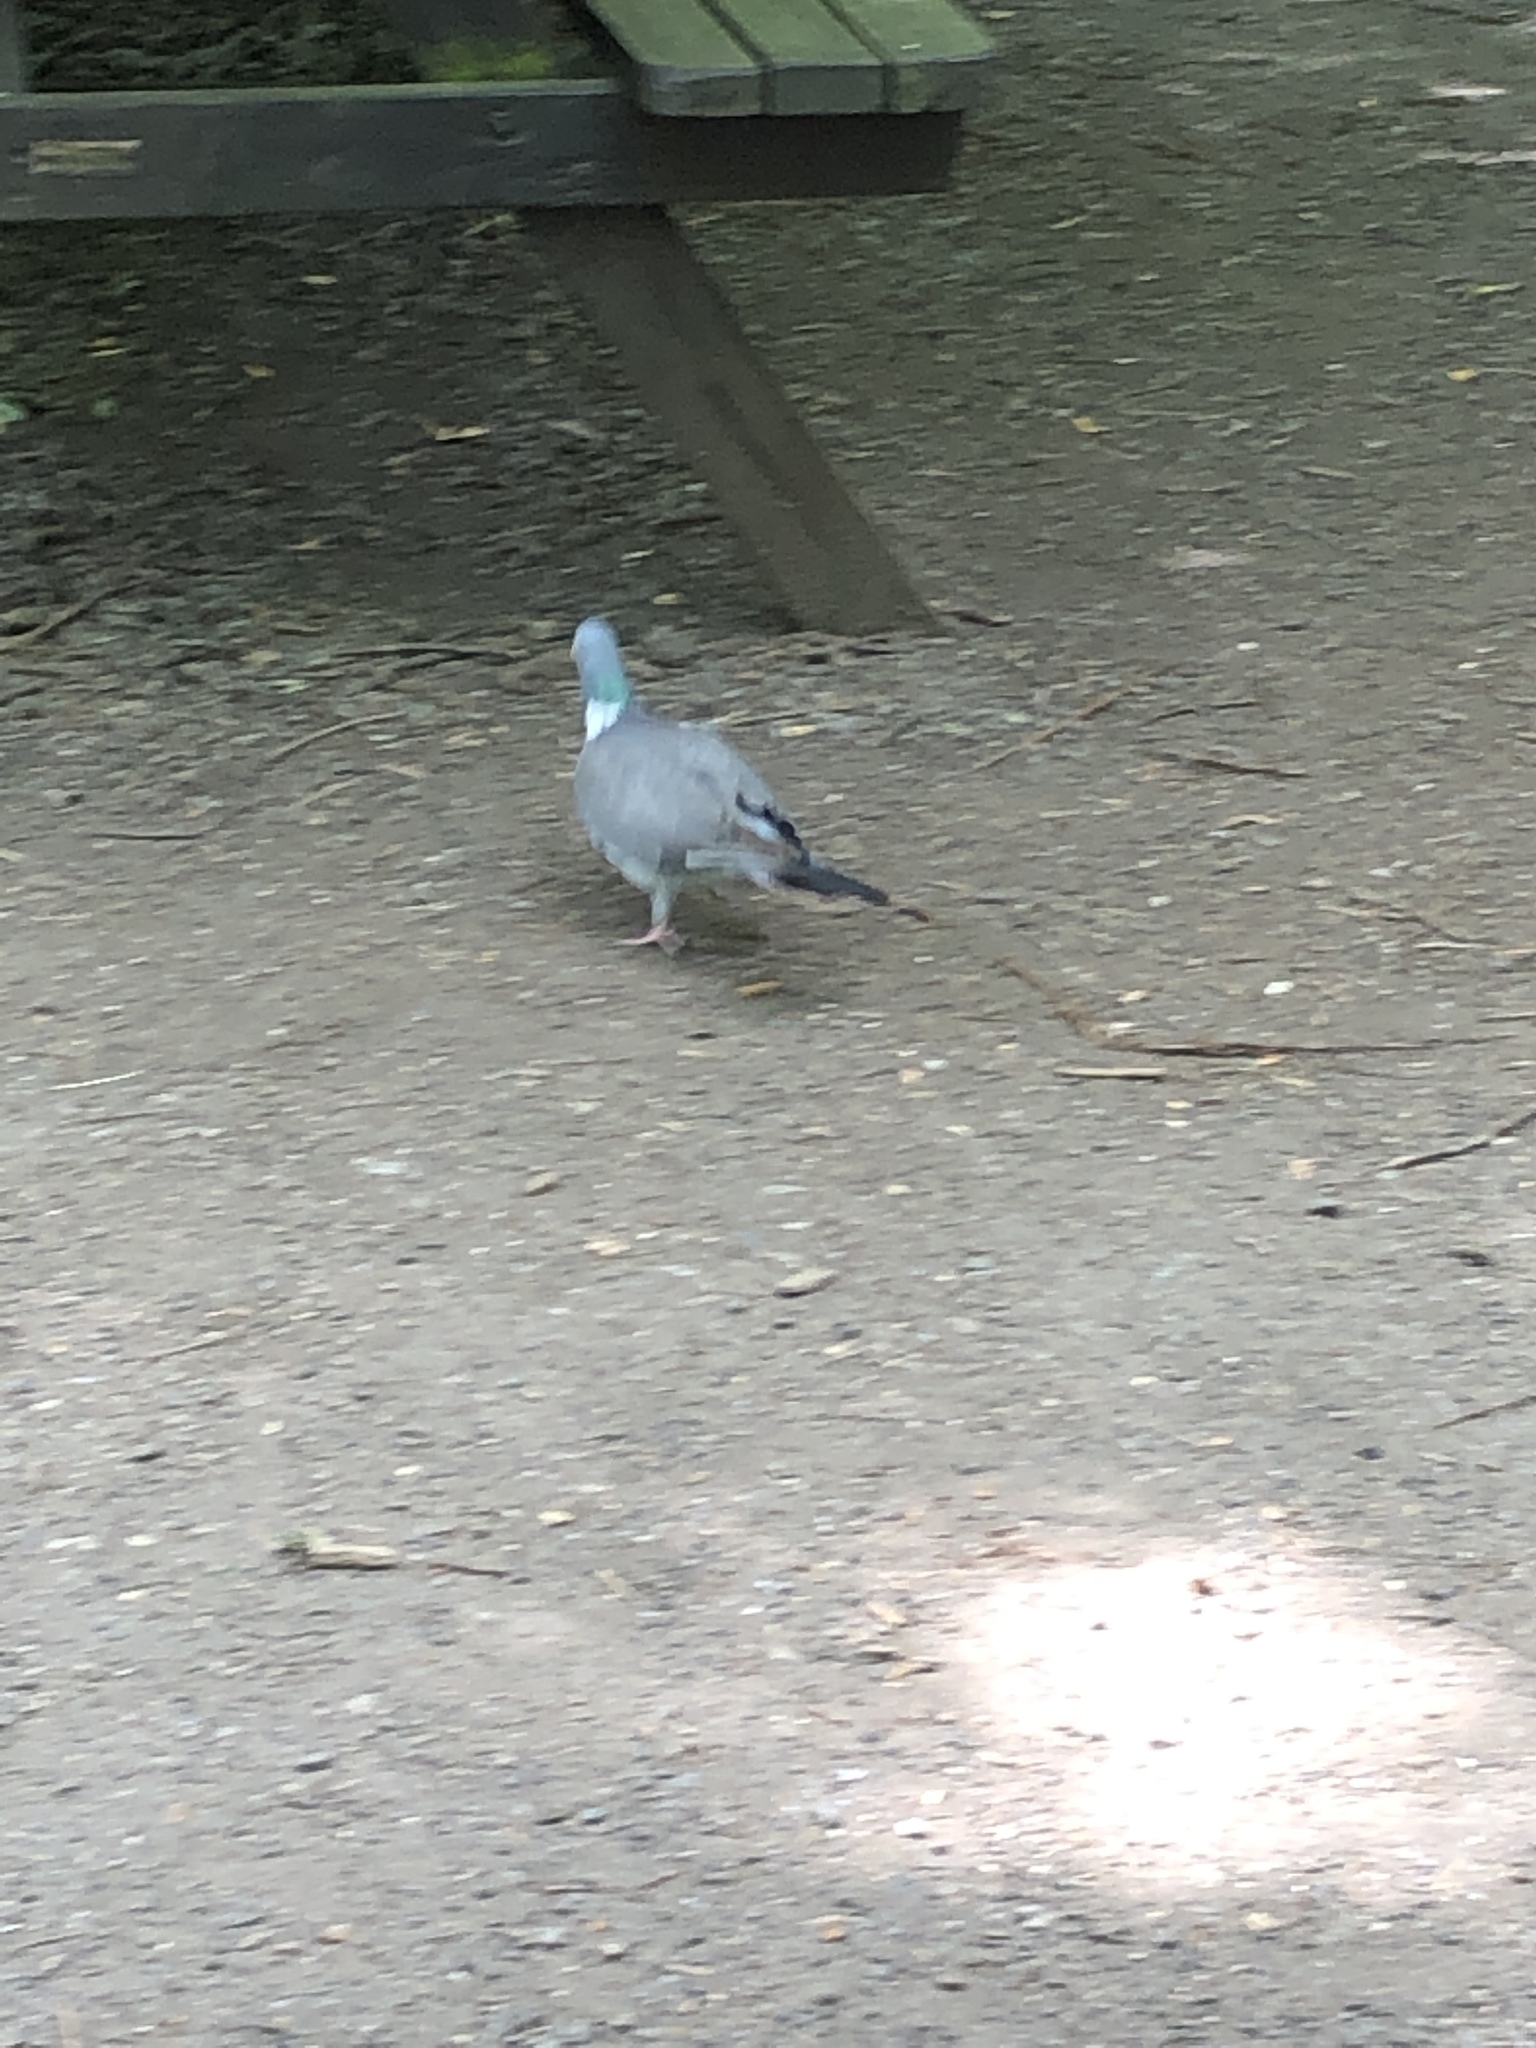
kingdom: Animalia
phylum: Chordata
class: Aves
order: Columbiformes
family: Columbidae
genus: Columba
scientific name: Columba palumbus
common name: Common wood pigeon
